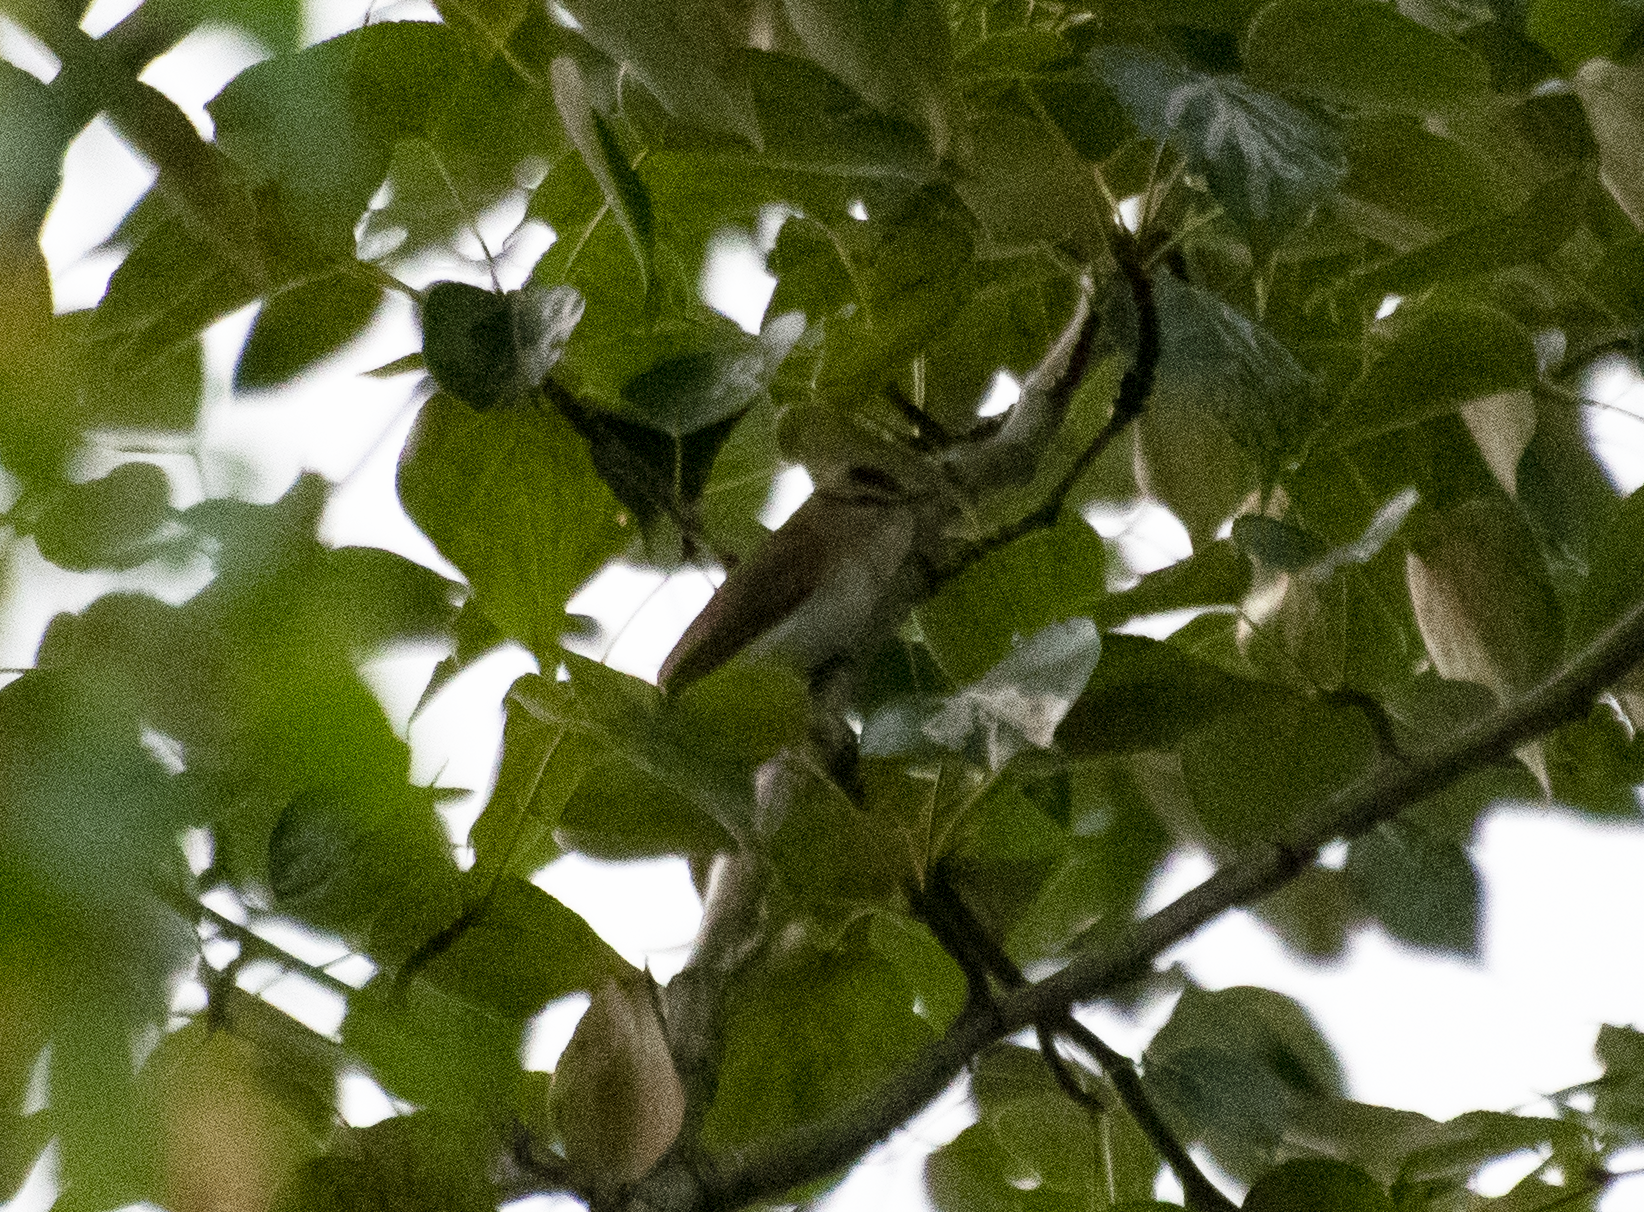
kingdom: Animalia
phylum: Chordata
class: Aves
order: Passeriformes
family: Vireonidae
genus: Vireo
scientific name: Vireo olivaceus
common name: Red-eyed vireo
